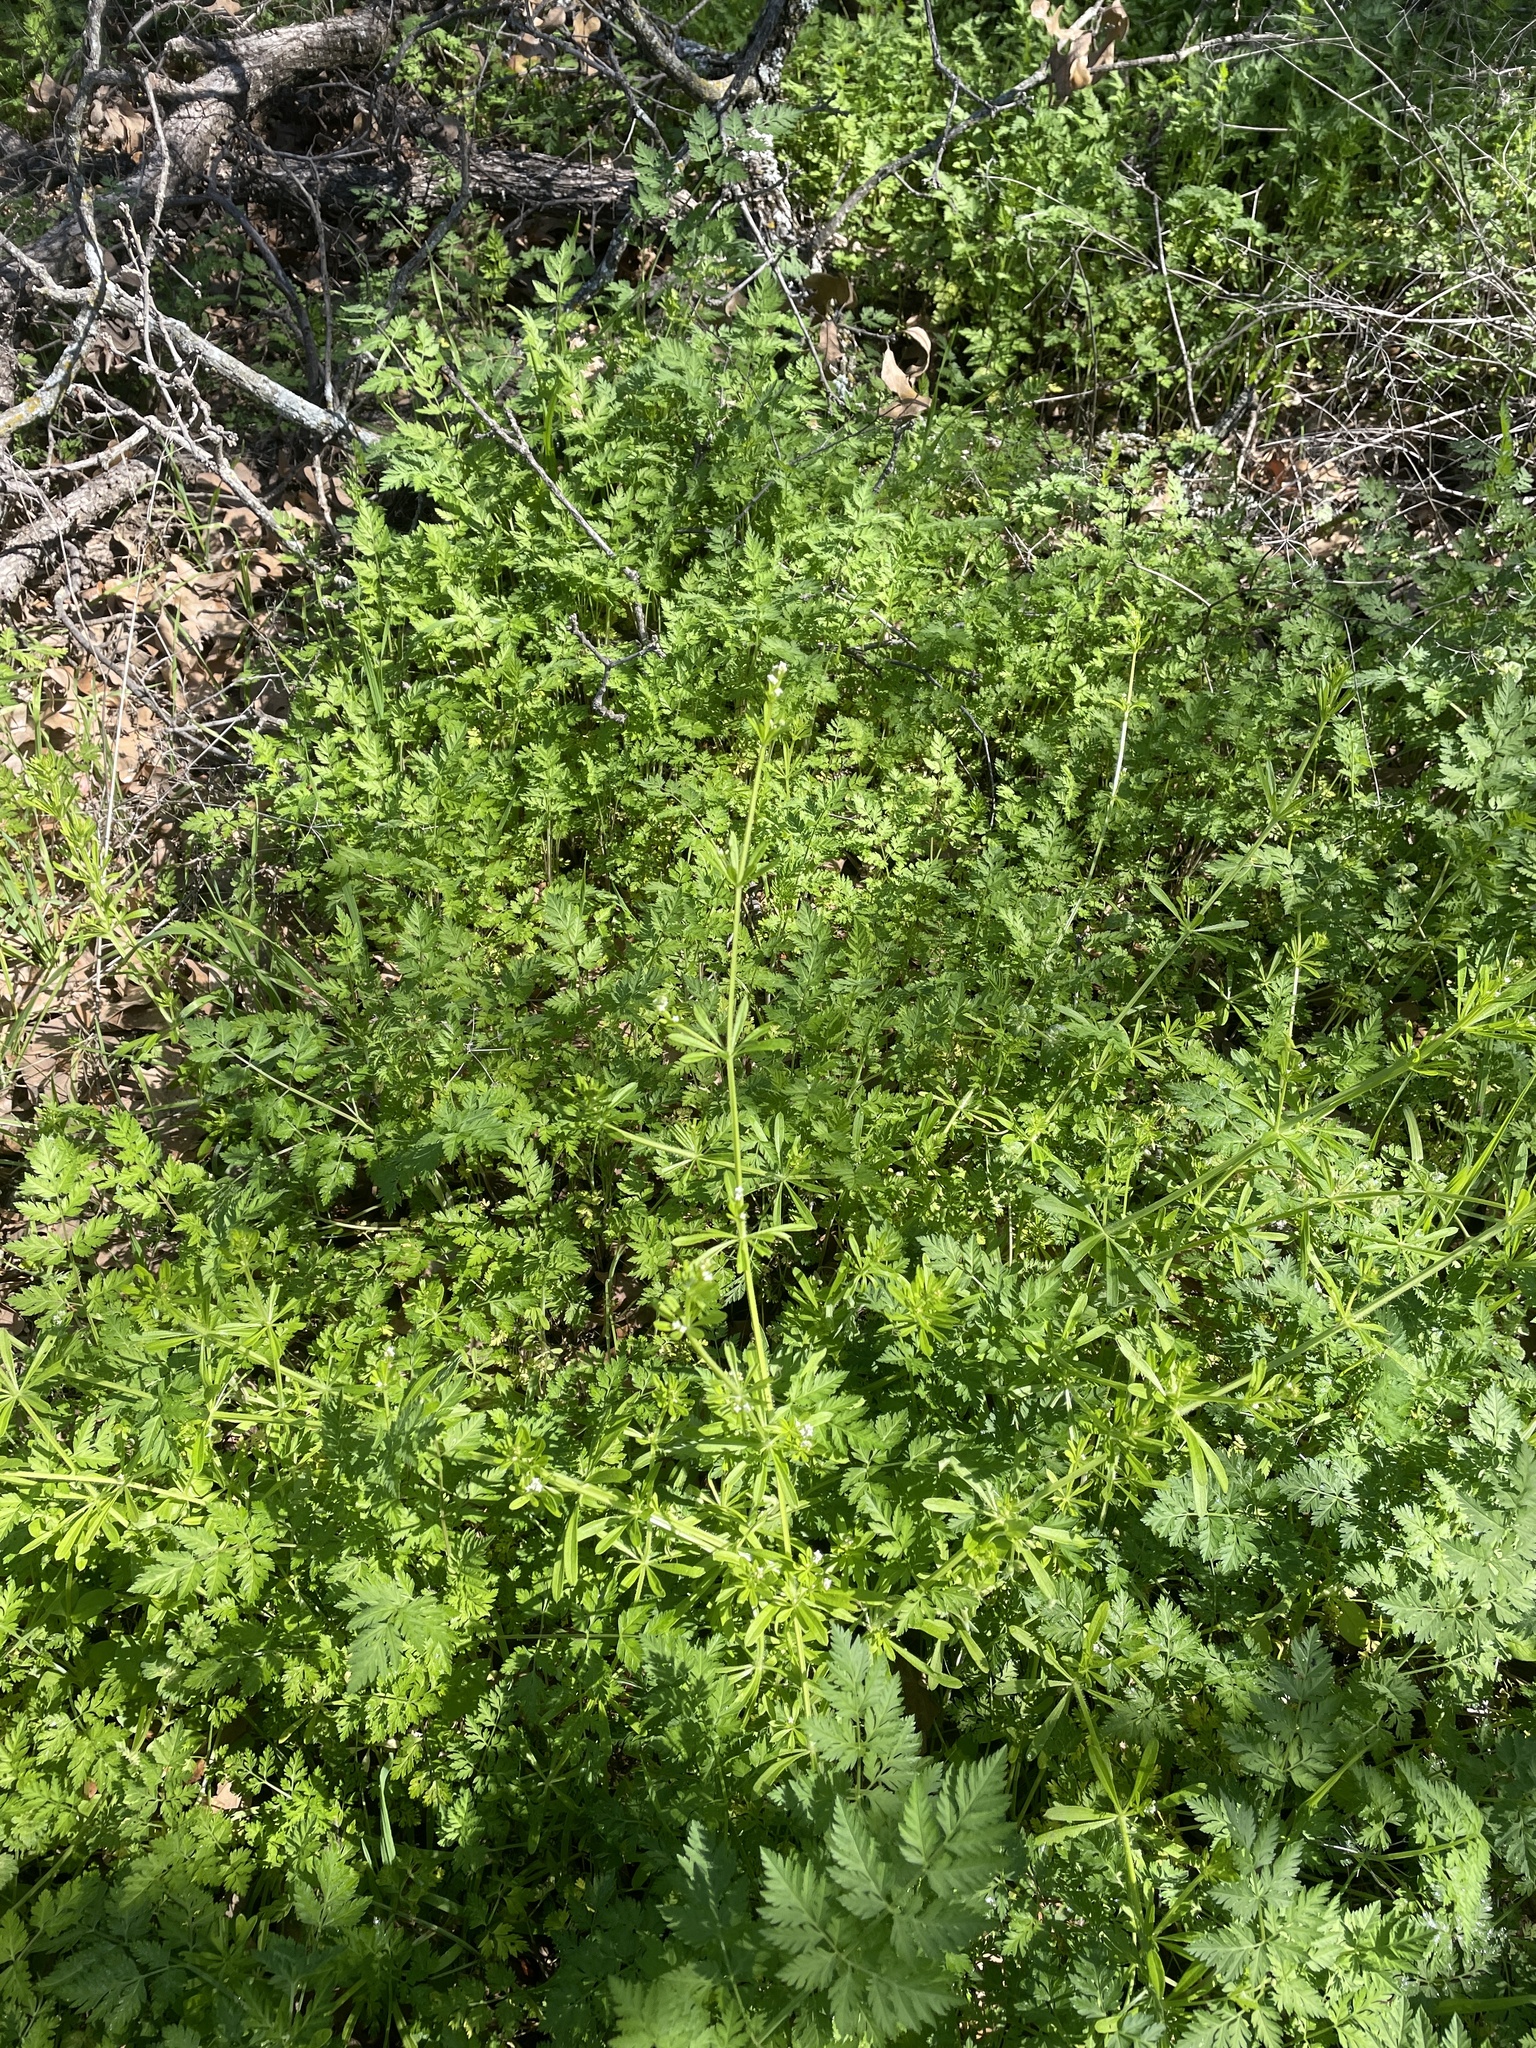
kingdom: Plantae
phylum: Tracheophyta
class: Magnoliopsida
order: Gentianales
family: Rubiaceae
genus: Galium
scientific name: Galium aparine
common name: Cleavers
